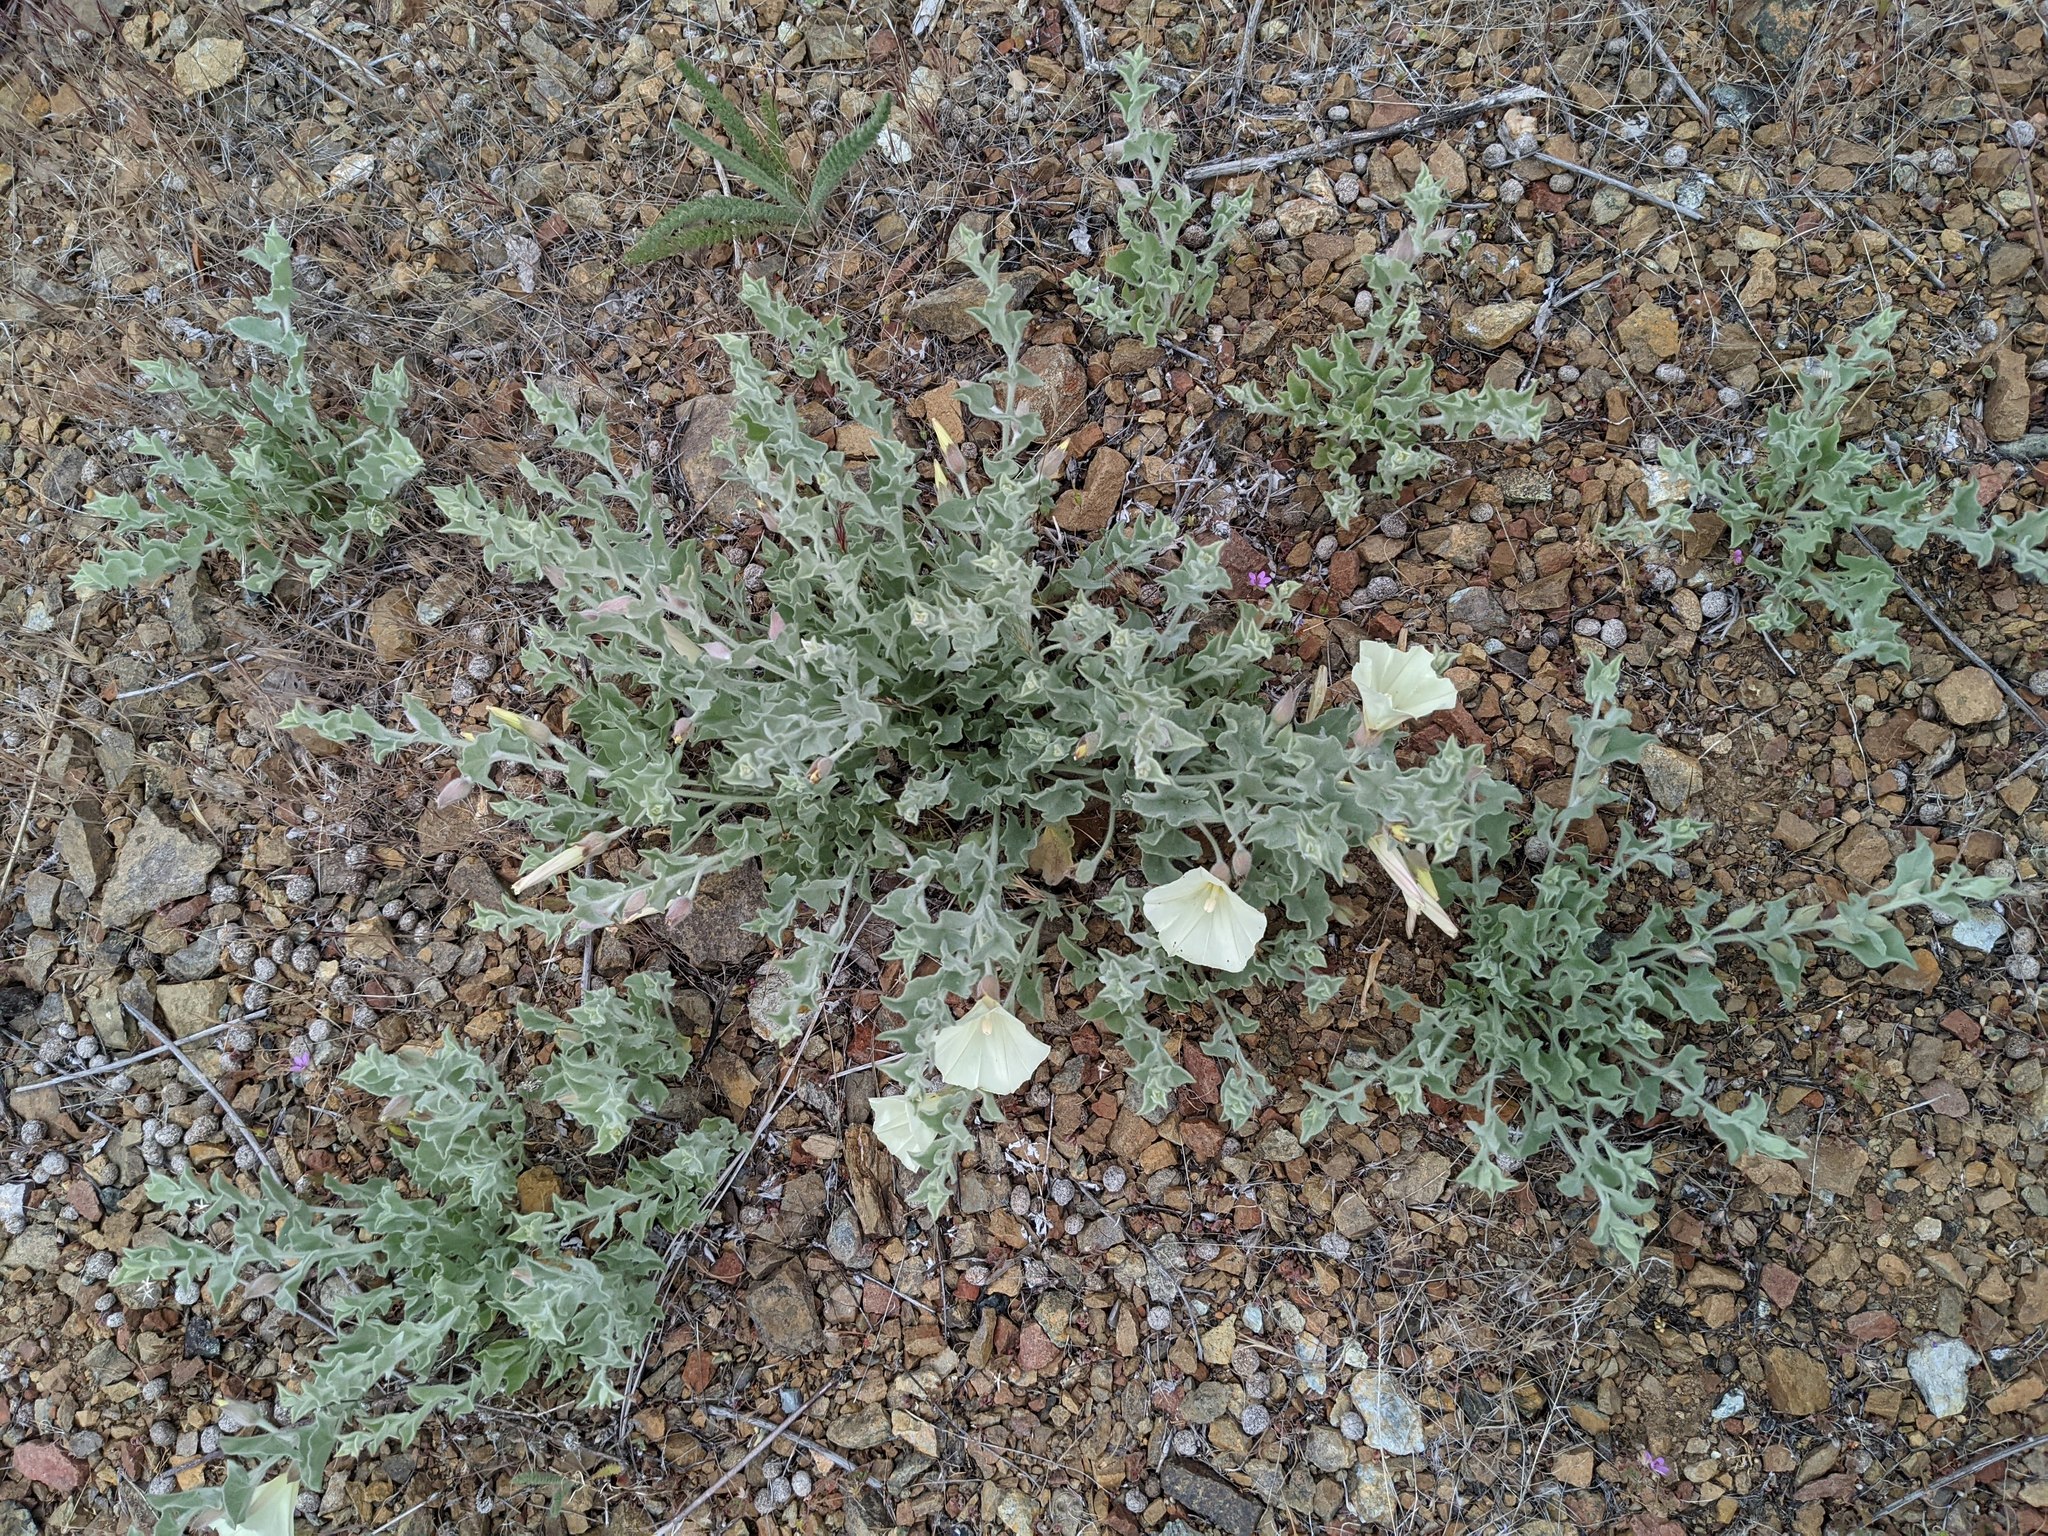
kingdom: Plantae
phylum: Tracheophyta
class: Magnoliopsida
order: Solanales
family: Convolvulaceae
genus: Calystegia
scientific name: Calystegia malacophylla
